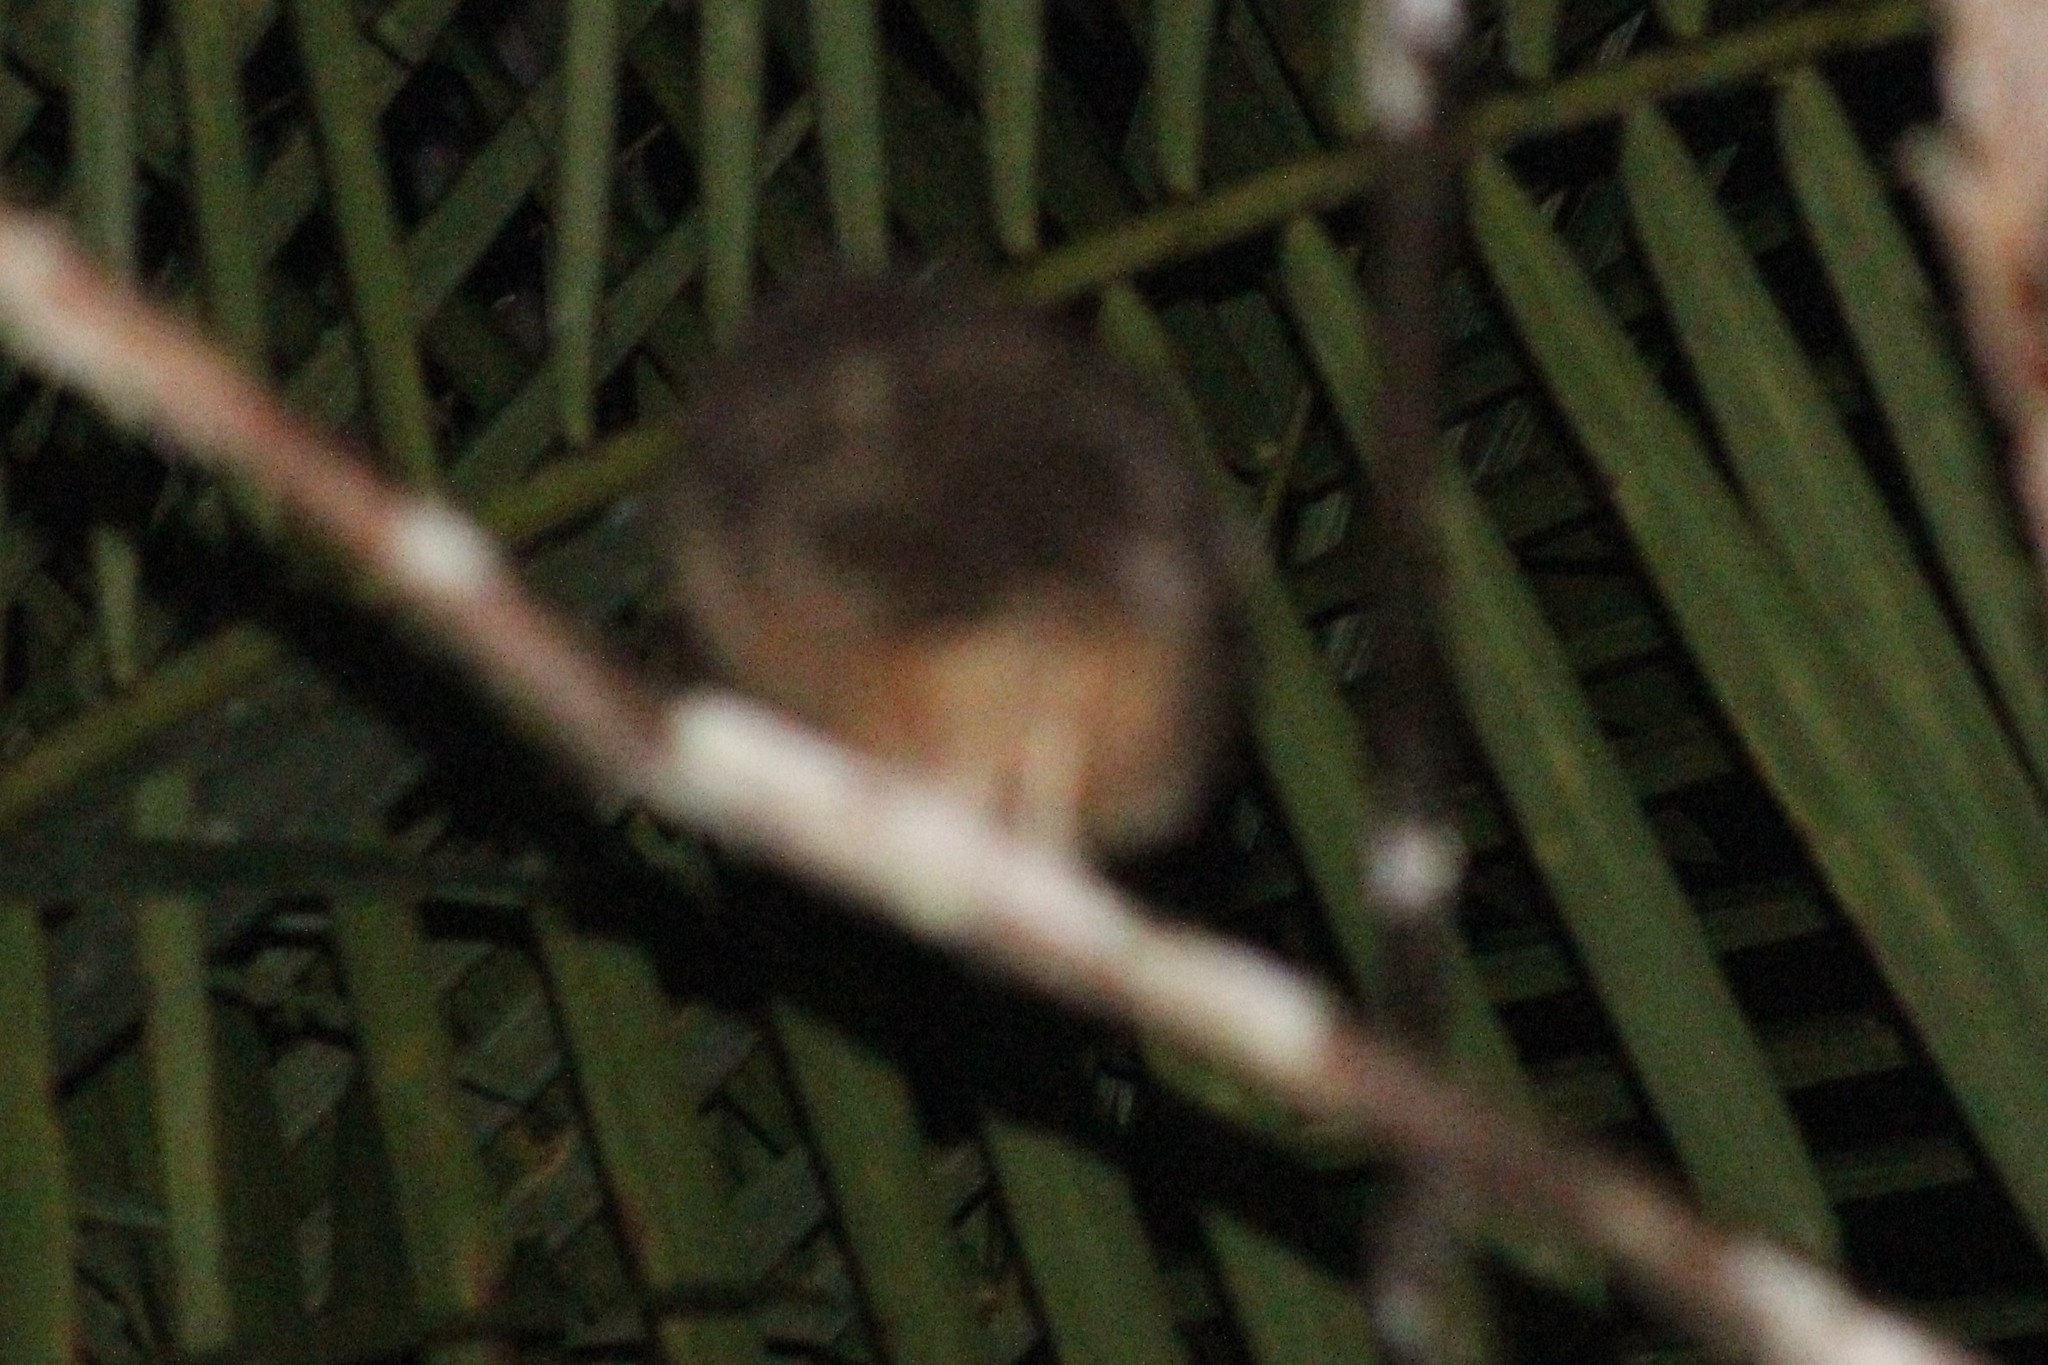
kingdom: Animalia
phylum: Chordata
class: Aves
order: Strigiformes
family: Strigidae
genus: Megascops
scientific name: Megascops ingens
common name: Rufescent screech-owl
